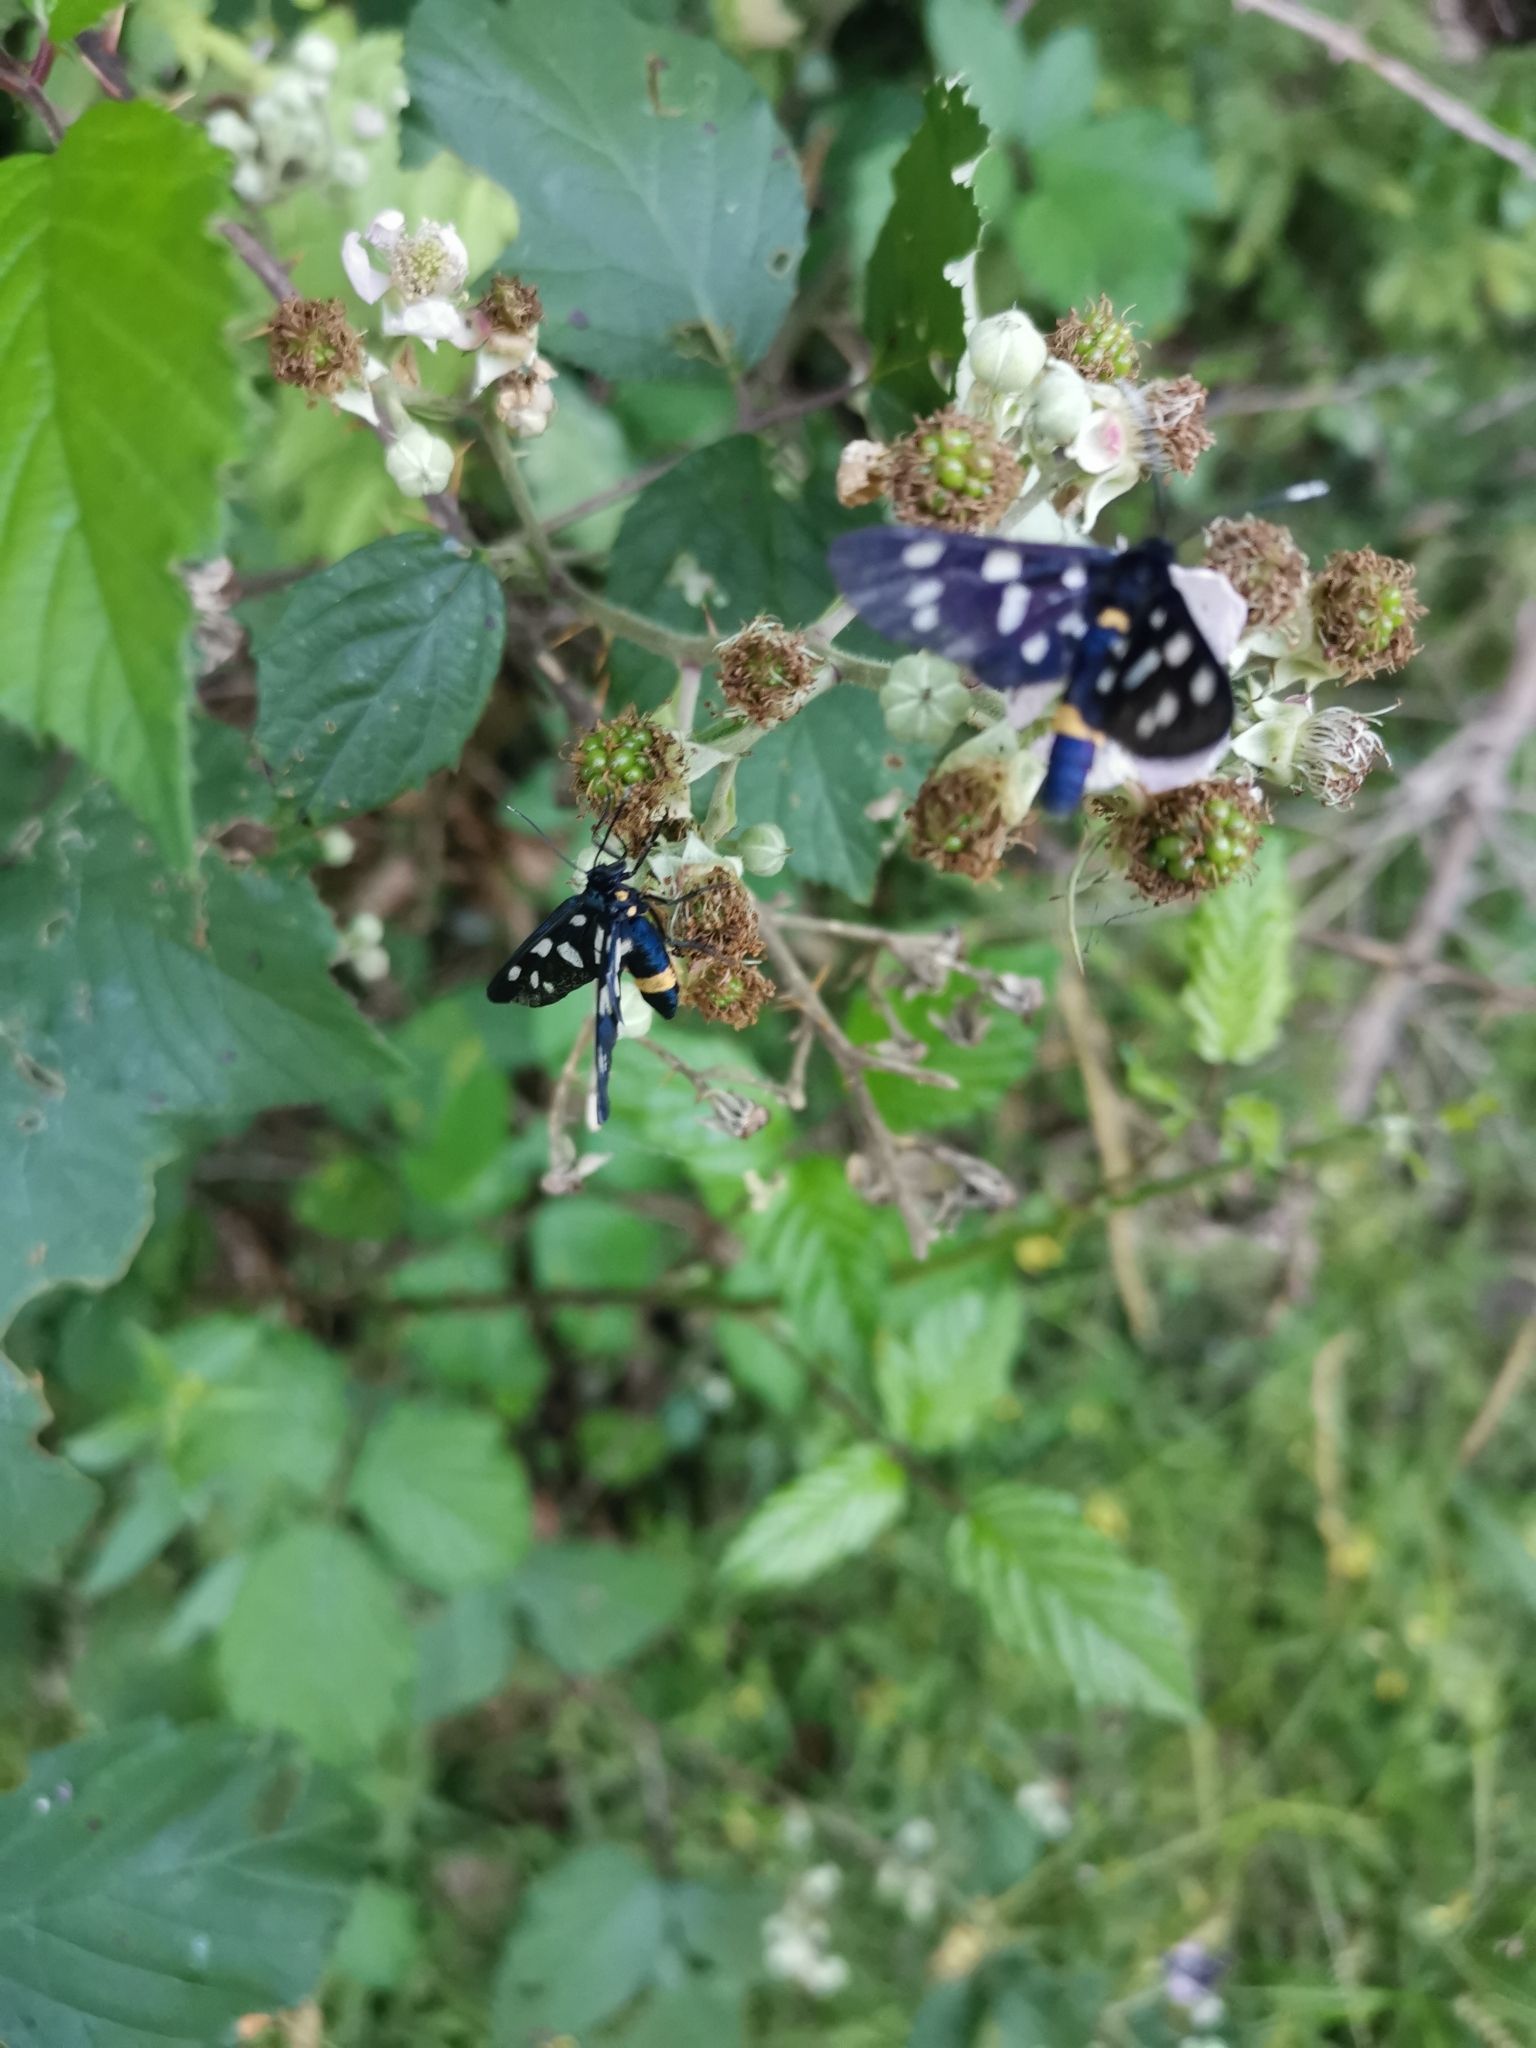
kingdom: Animalia
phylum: Arthropoda
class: Insecta
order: Lepidoptera
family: Erebidae
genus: Amata
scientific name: Amata phegea
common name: Nine-spotted
